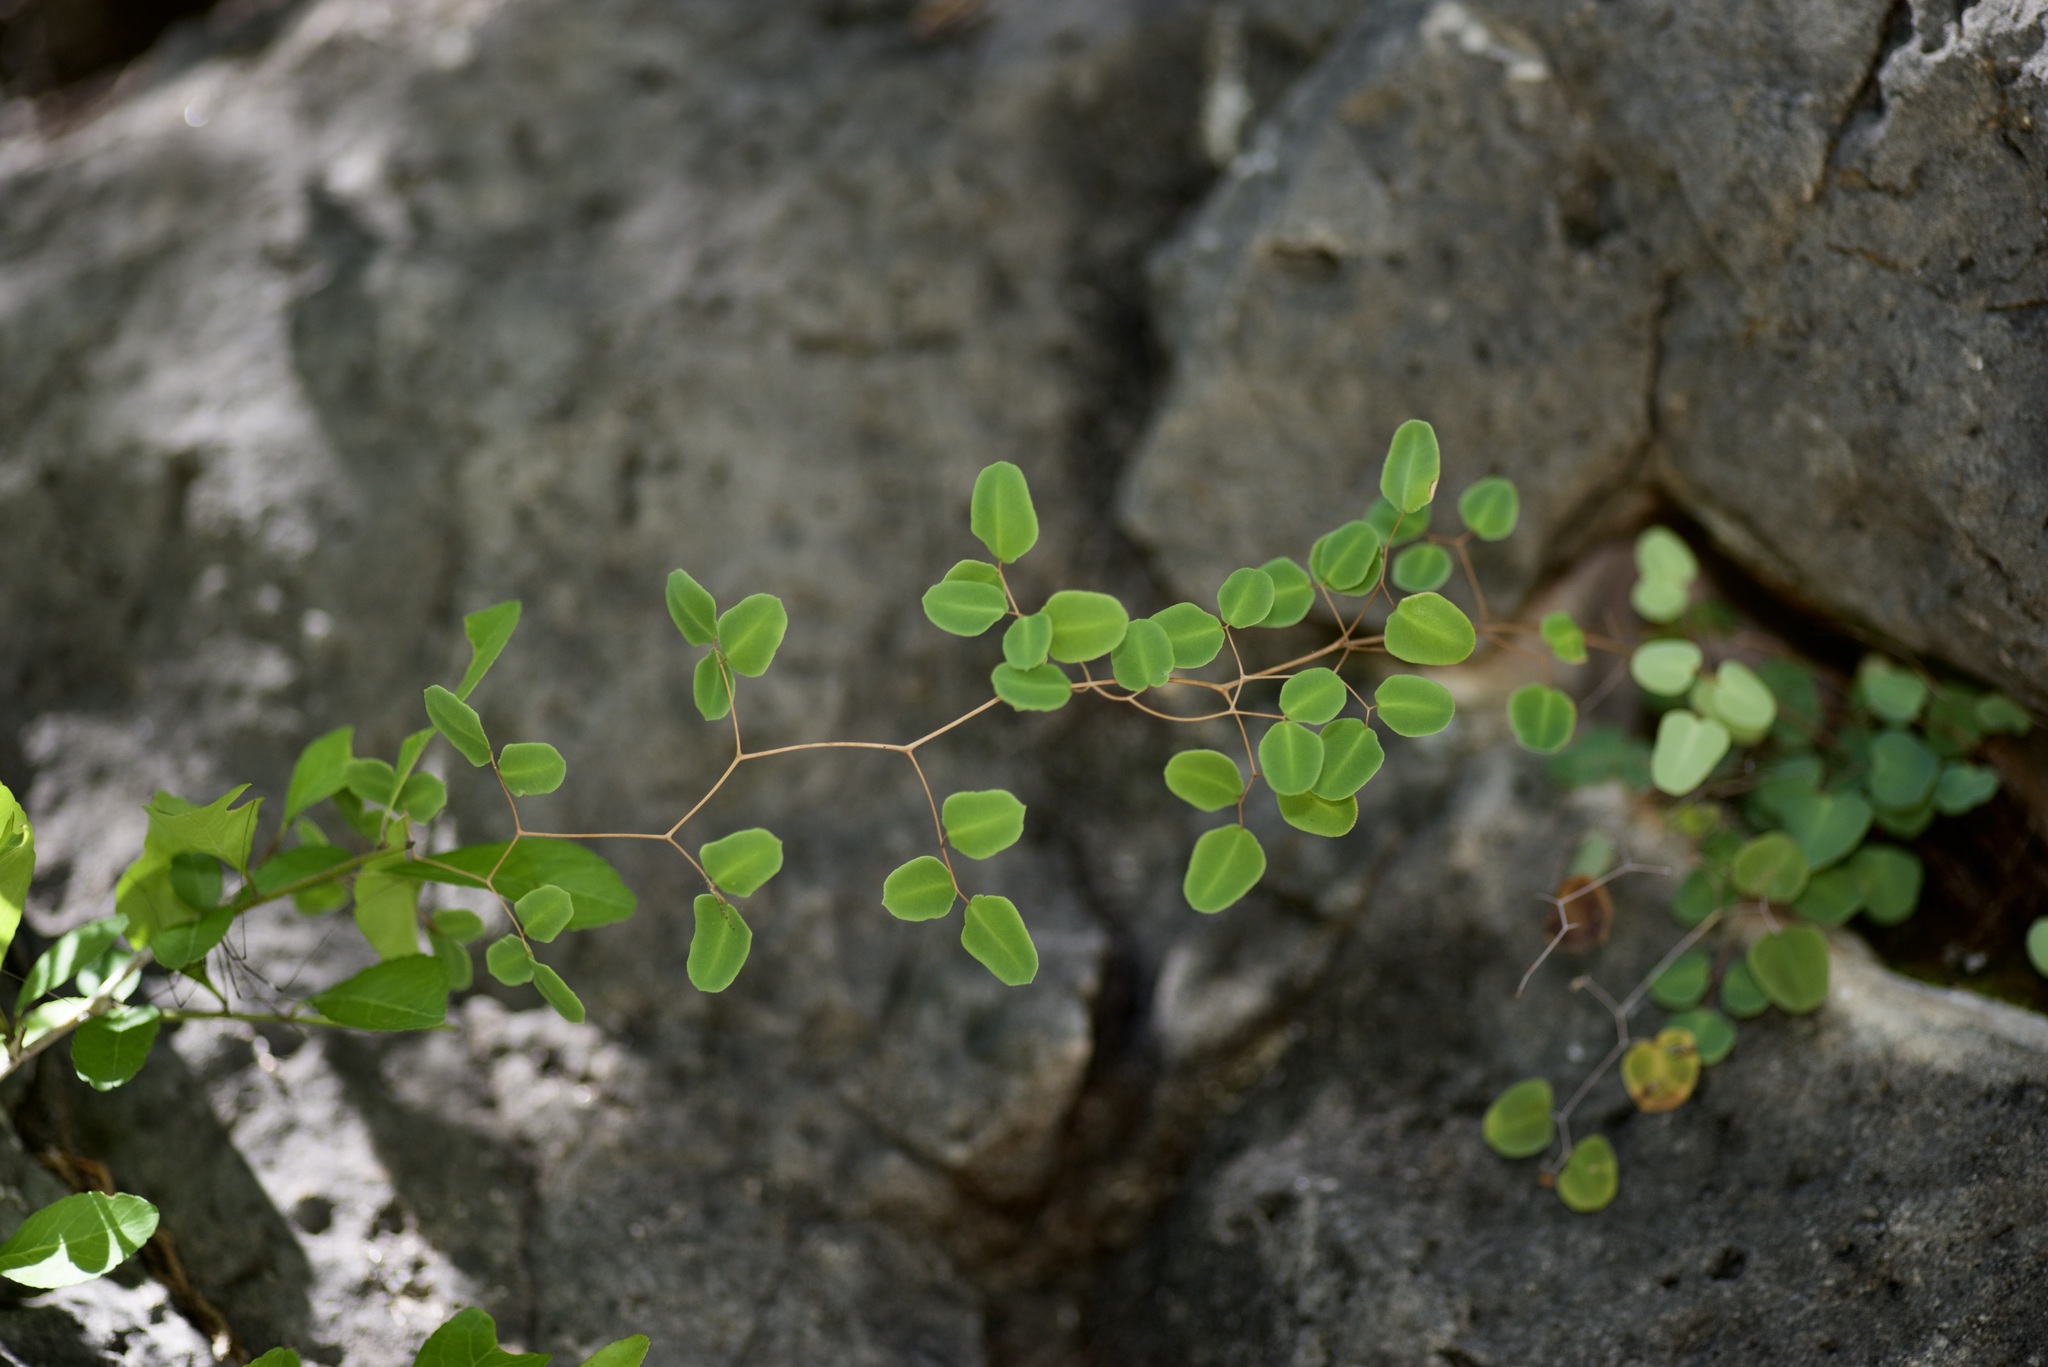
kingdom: Plantae
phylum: Tracheophyta
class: Polypodiopsida
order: Polypodiales
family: Pteridaceae
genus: Pellaea
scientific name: Pellaea ovata
